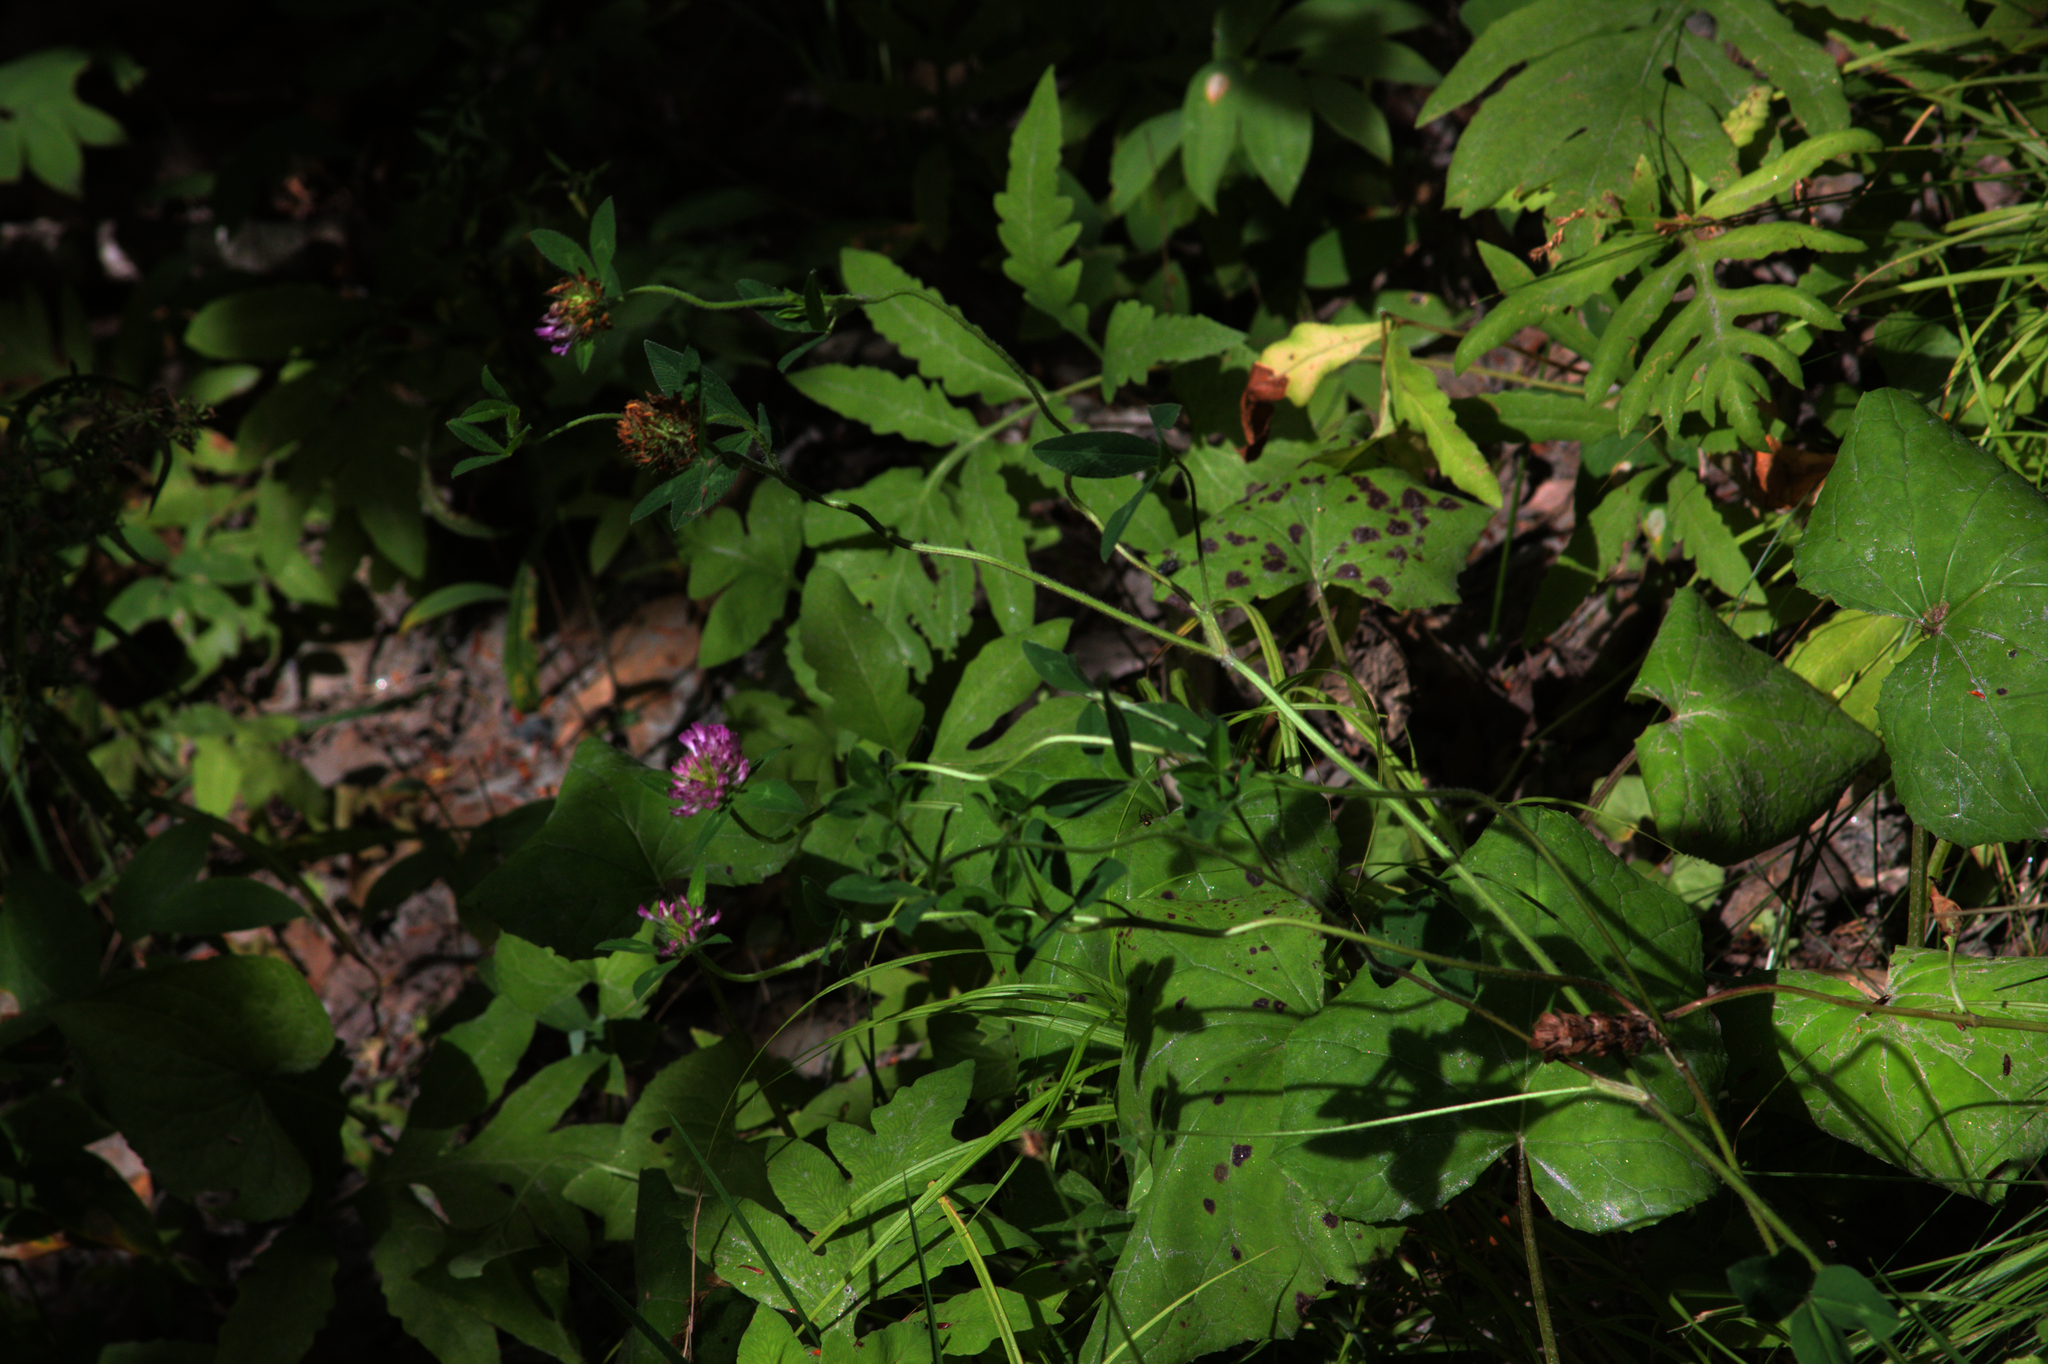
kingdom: Plantae
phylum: Tracheophyta
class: Magnoliopsida
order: Fabales
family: Fabaceae
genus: Trifolium
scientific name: Trifolium pratense
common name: Red clover
